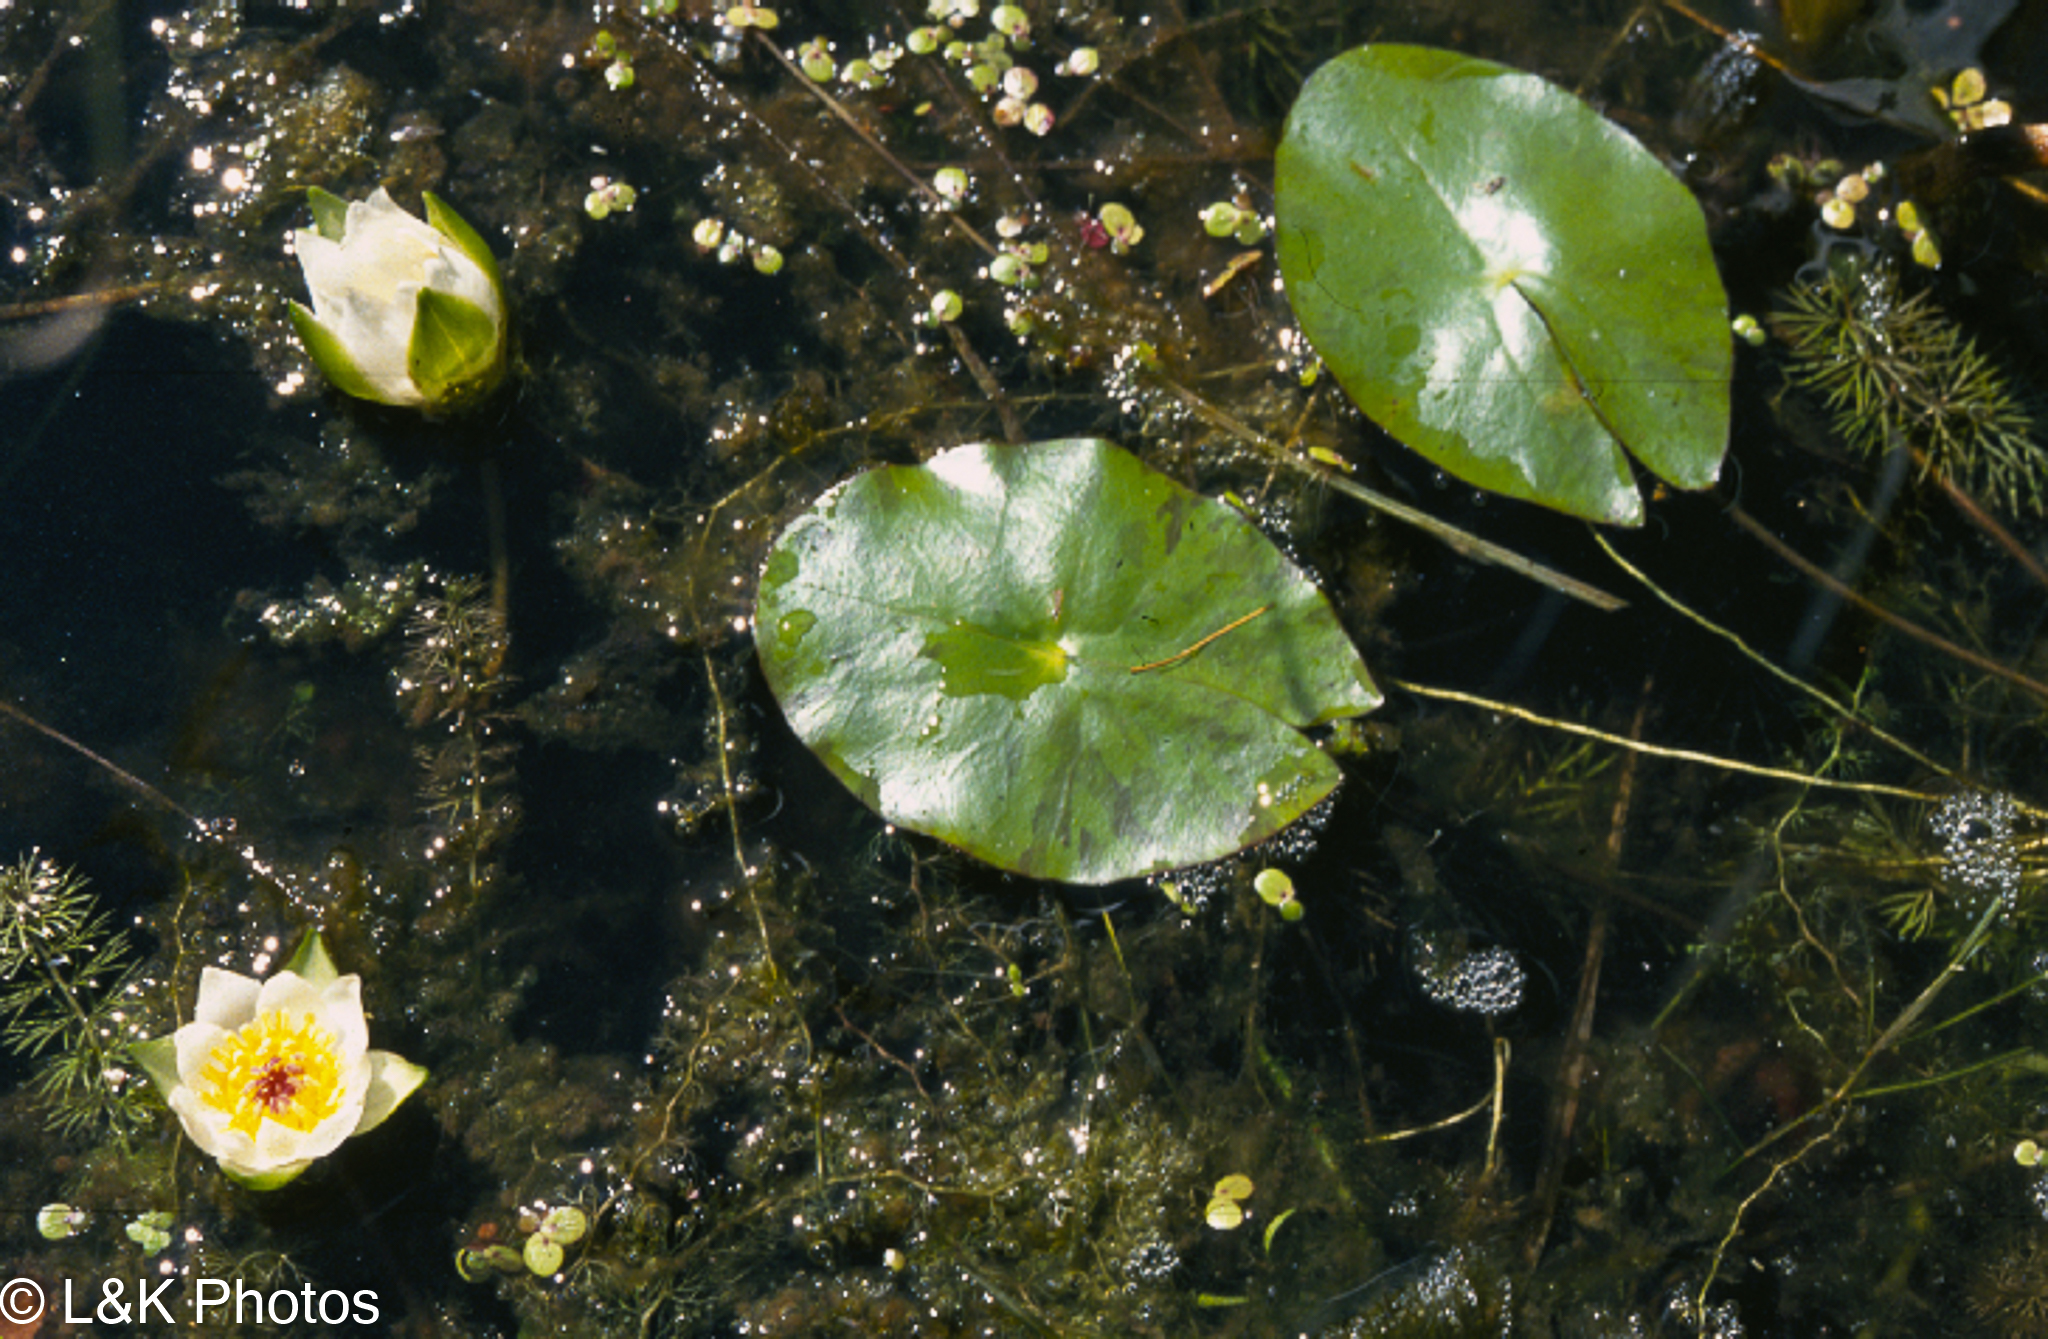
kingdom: Plantae
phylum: Tracheophyta
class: Magnoliopsida
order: Nymphaeales
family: Nymphaeaceae
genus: Nymphaea
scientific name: Nymphaea tetragona
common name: Pygmy water-lily
